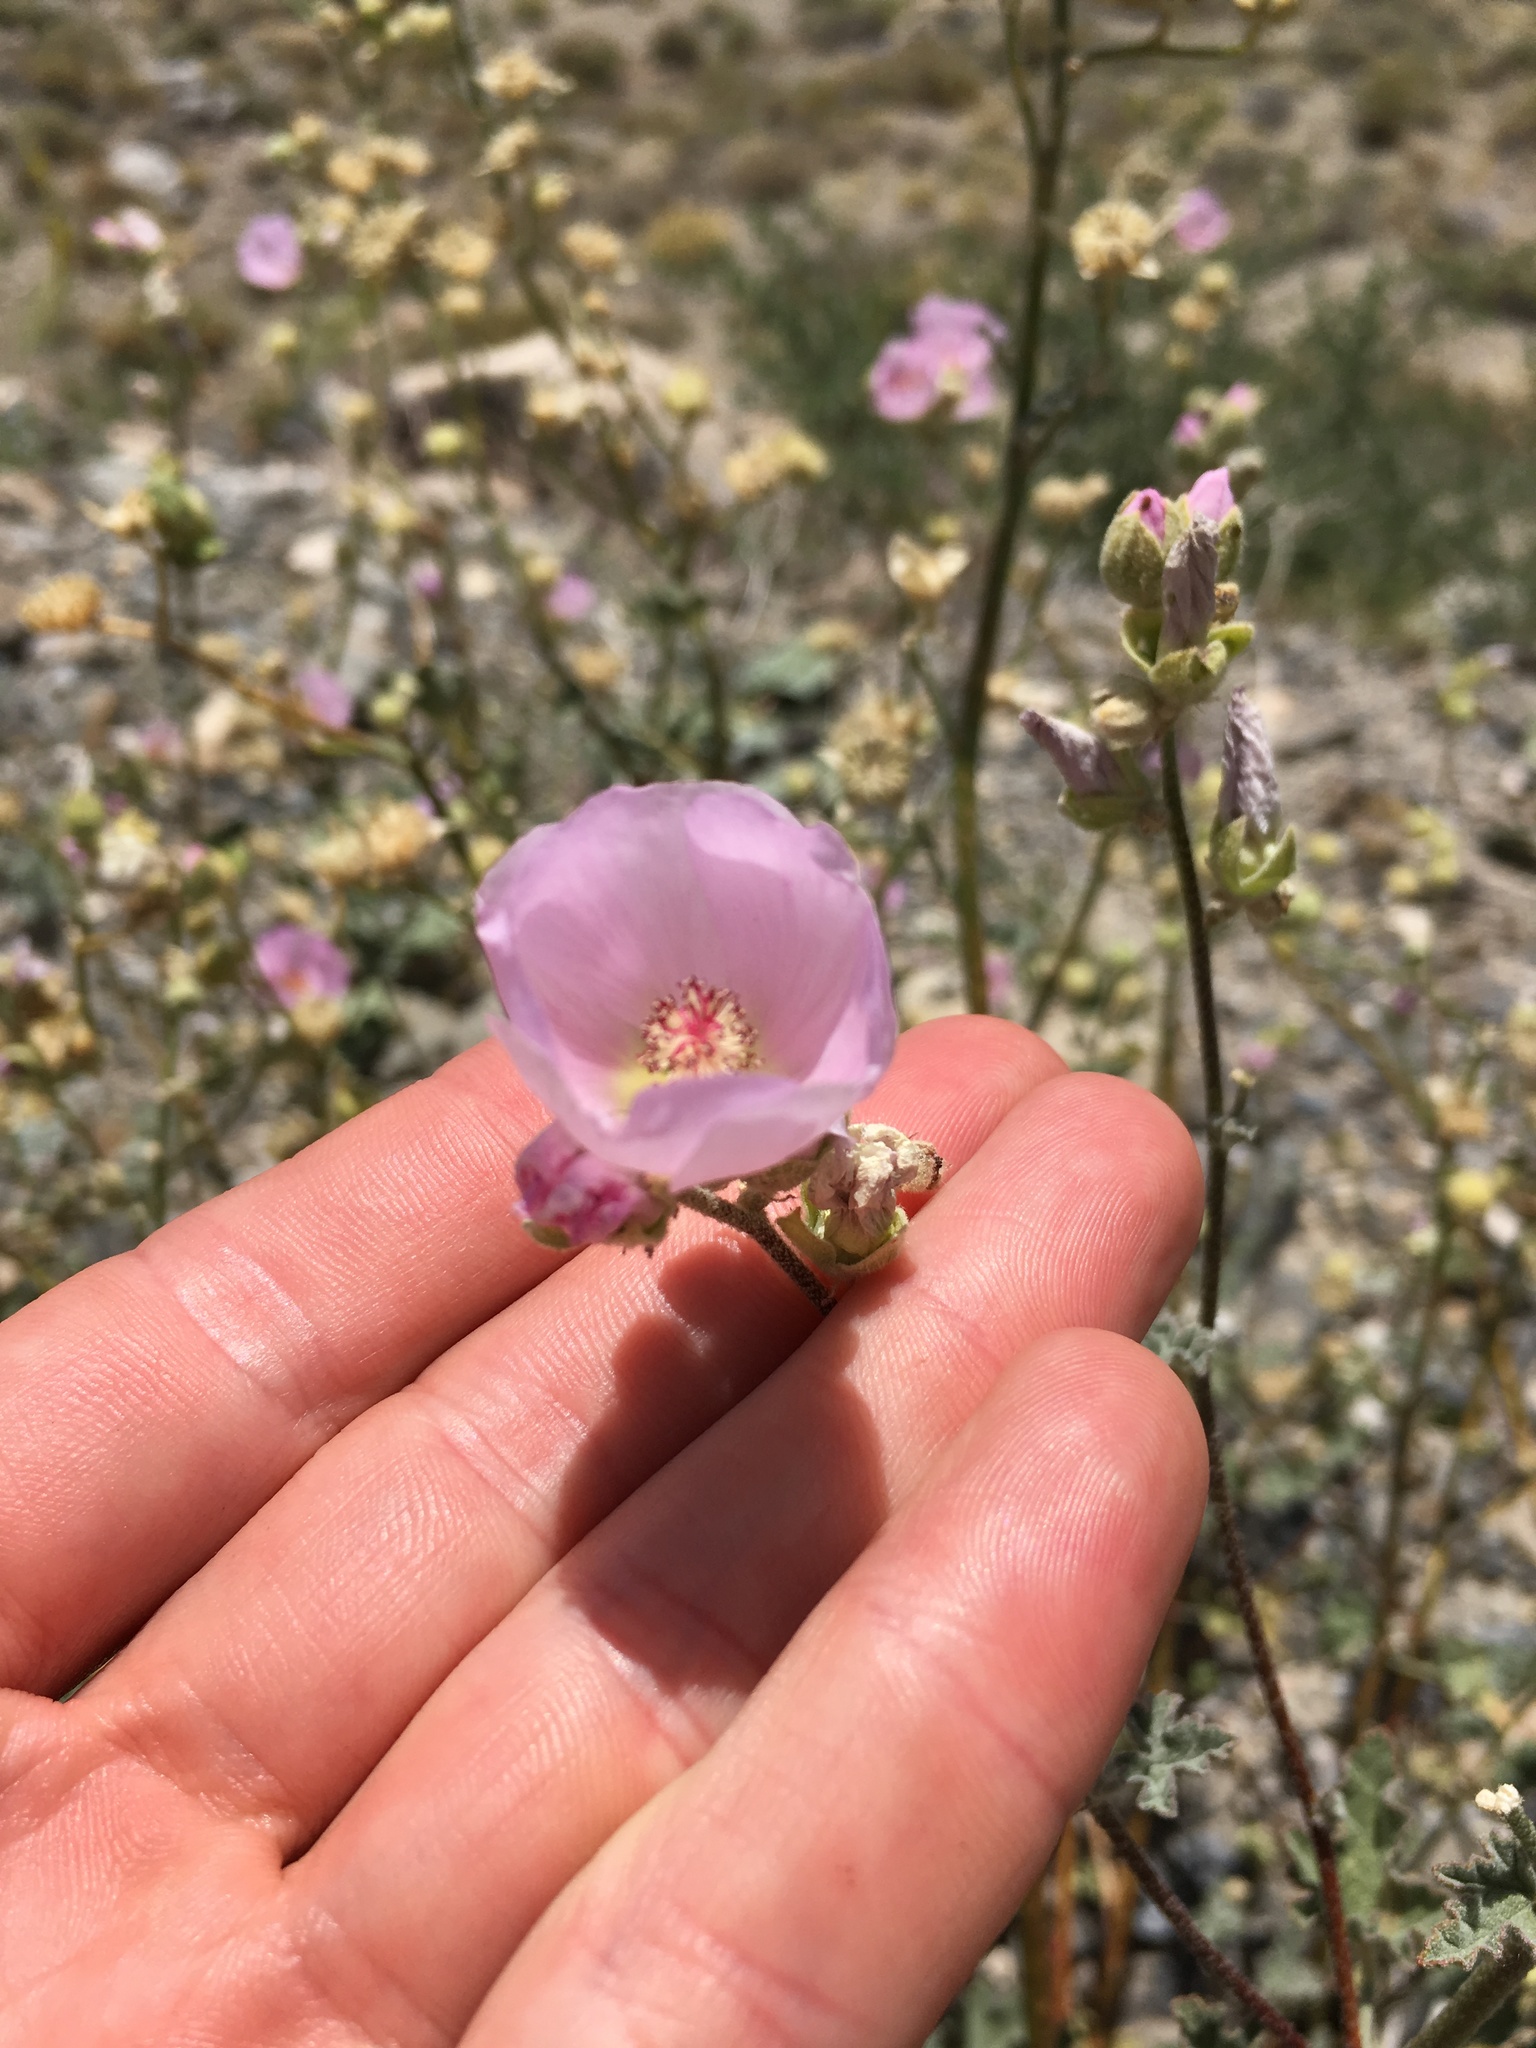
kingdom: Plantae
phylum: Tracheophyta
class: Magnoliopsida
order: Malvales
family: Malvaceae
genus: Sphaeralcea
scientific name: Sphaeralcea ambigua
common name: Apricot globe-mallow
